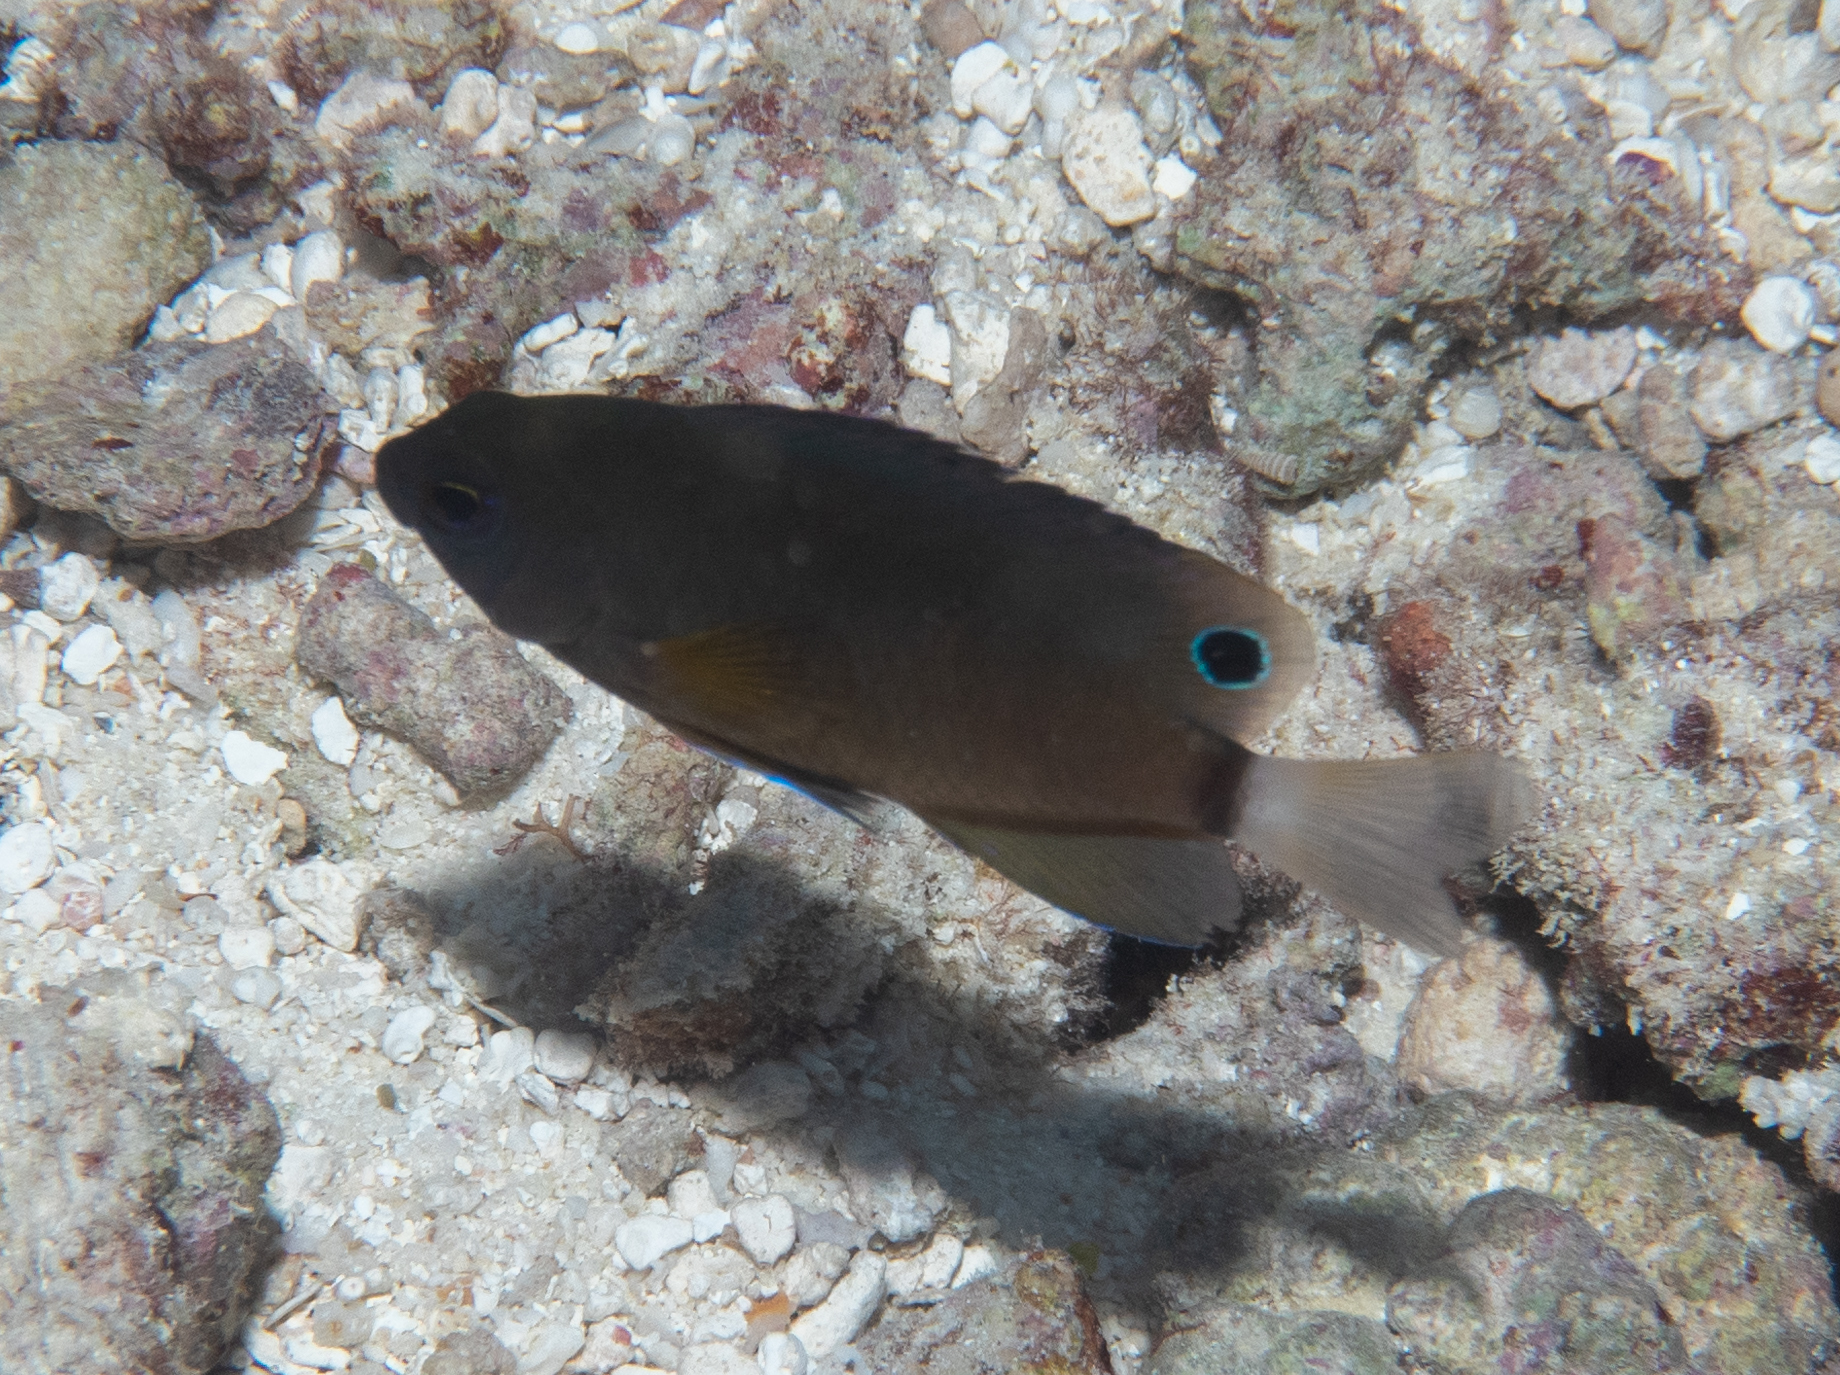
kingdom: Animalia
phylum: Chordata
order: Perciformes
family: Pomacentridae
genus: Pomacentrus
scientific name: Pomacentrus chrysurus
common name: White-tail damsel
